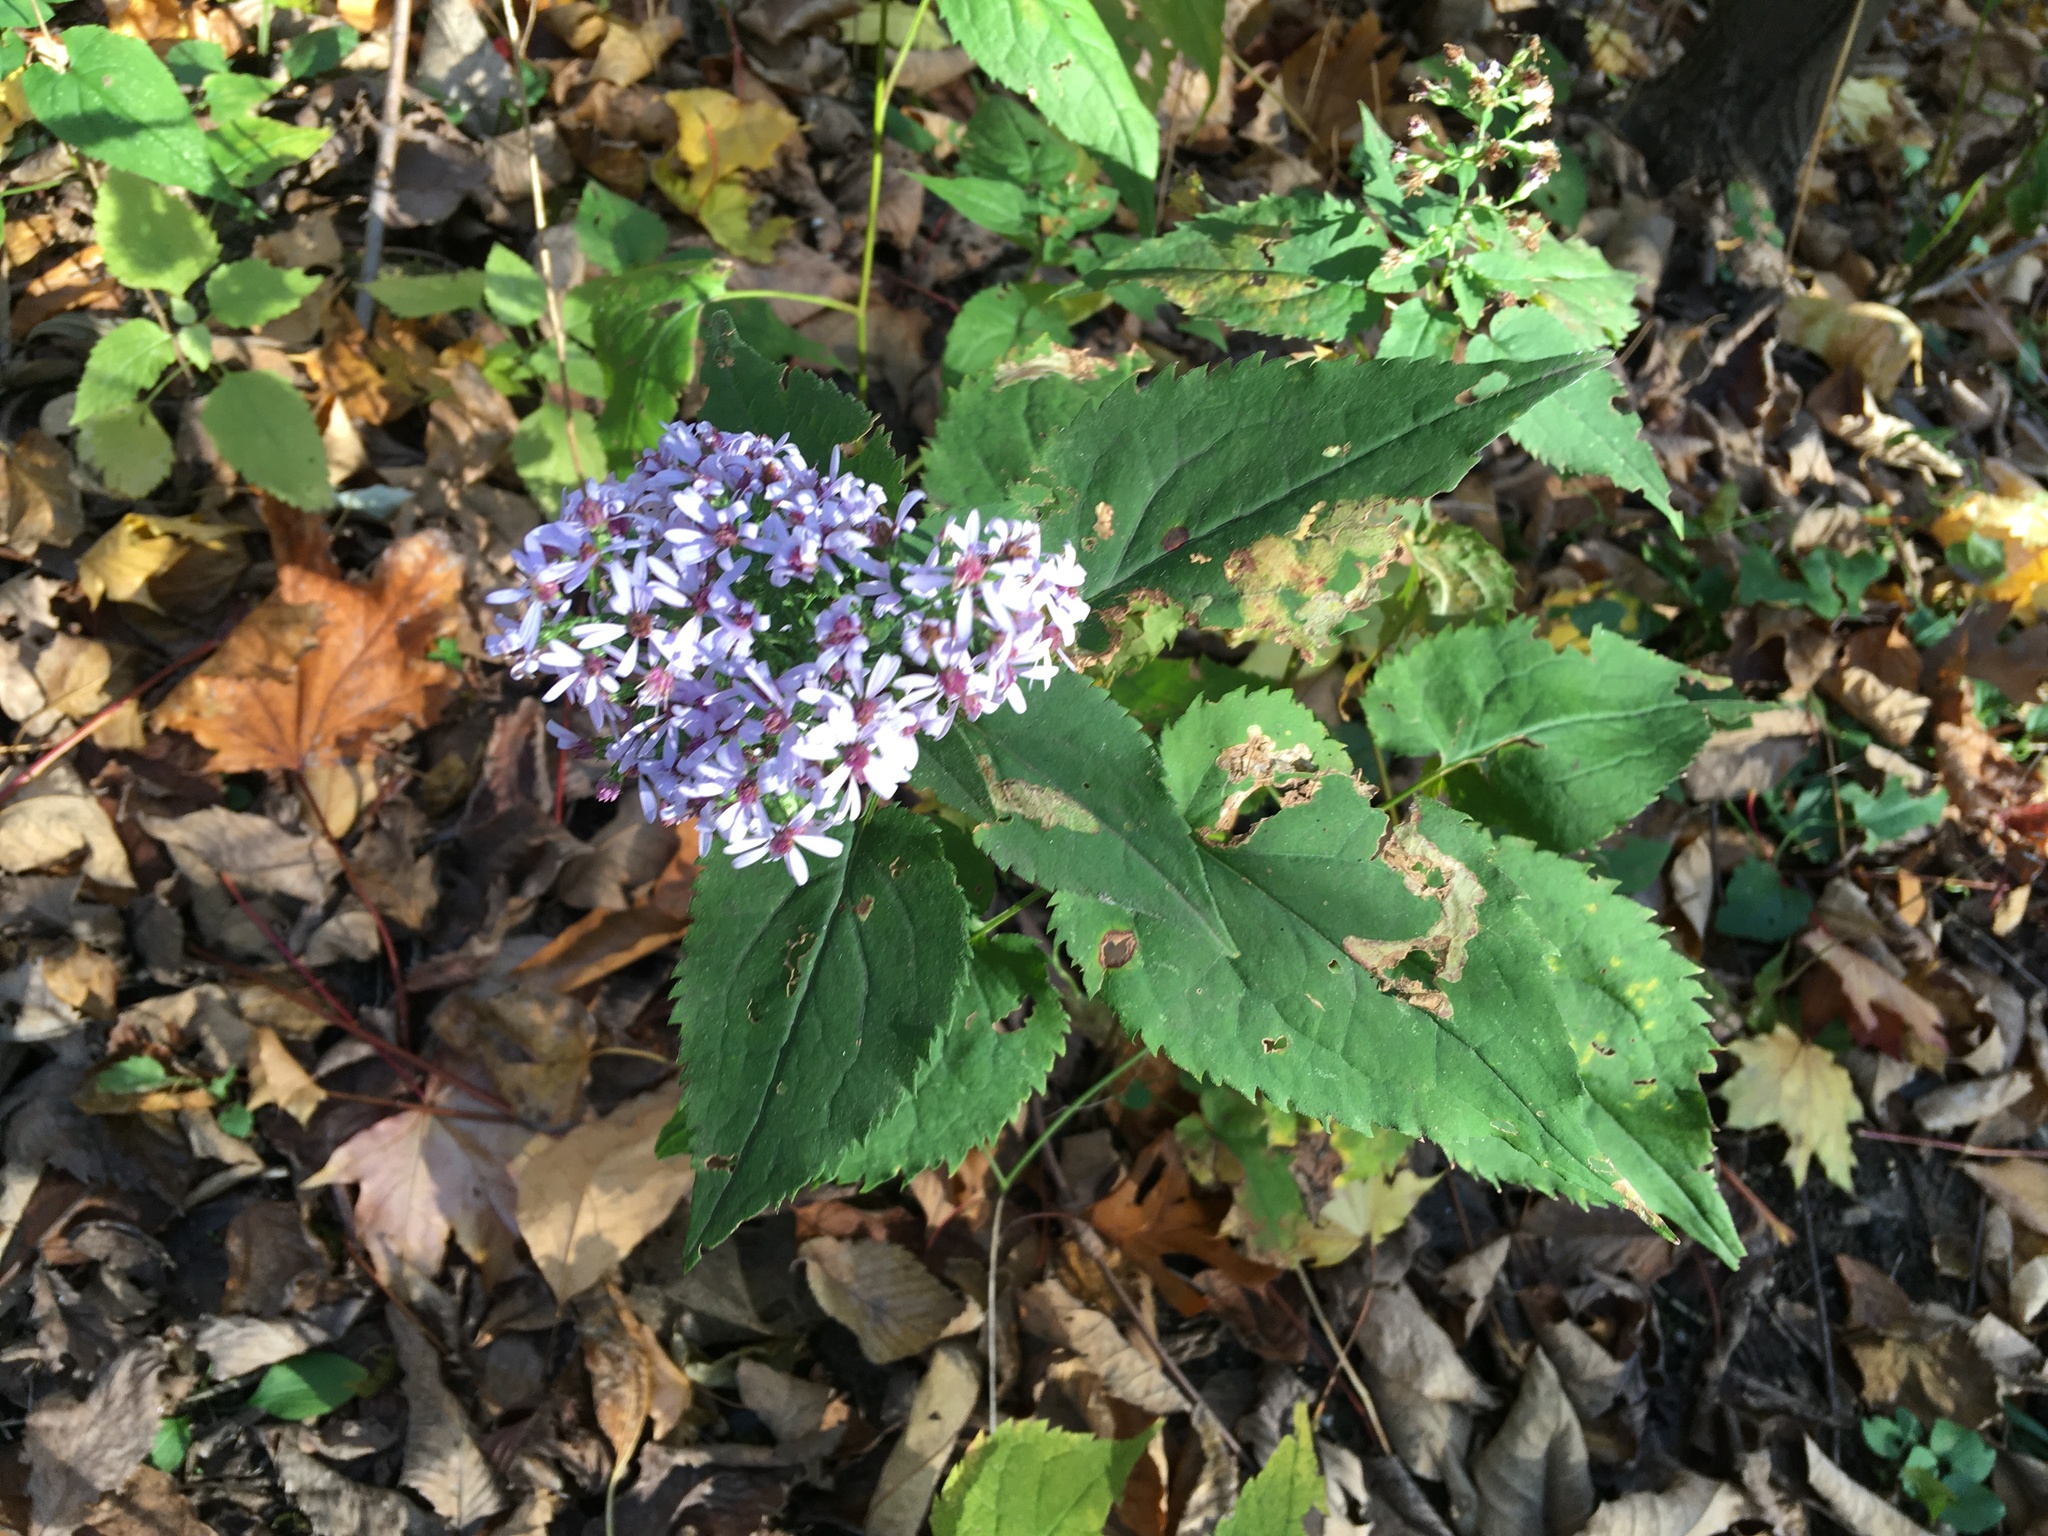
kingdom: Plantae
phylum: Tracheophyta
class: Magnoliopsida
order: Asterales
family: Asteraceae
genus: Symphyotrichum
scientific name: Symphyotrichum cordifolium
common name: Beeweed
